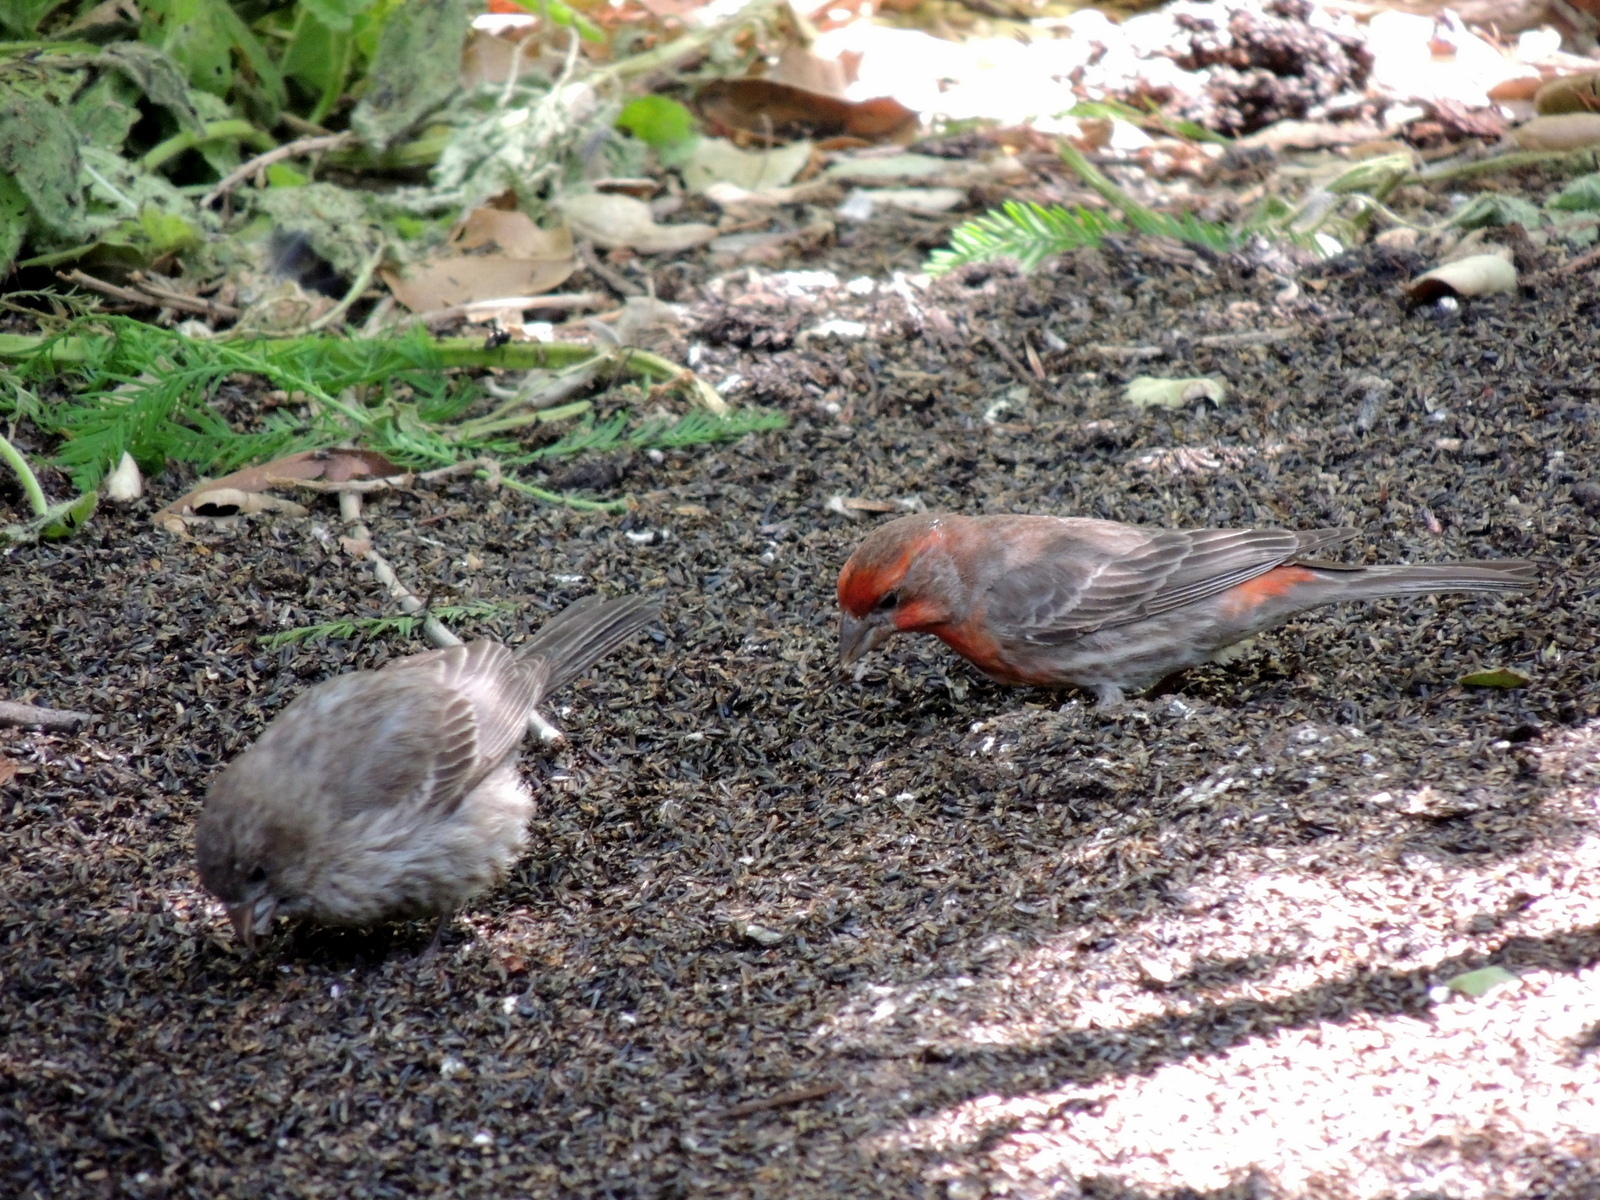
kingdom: Animalia
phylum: Chordata
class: Aves
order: Passeriformes
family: Fringillidae
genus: Haemorhous
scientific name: Haemorhous mexicanus
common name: House finch
